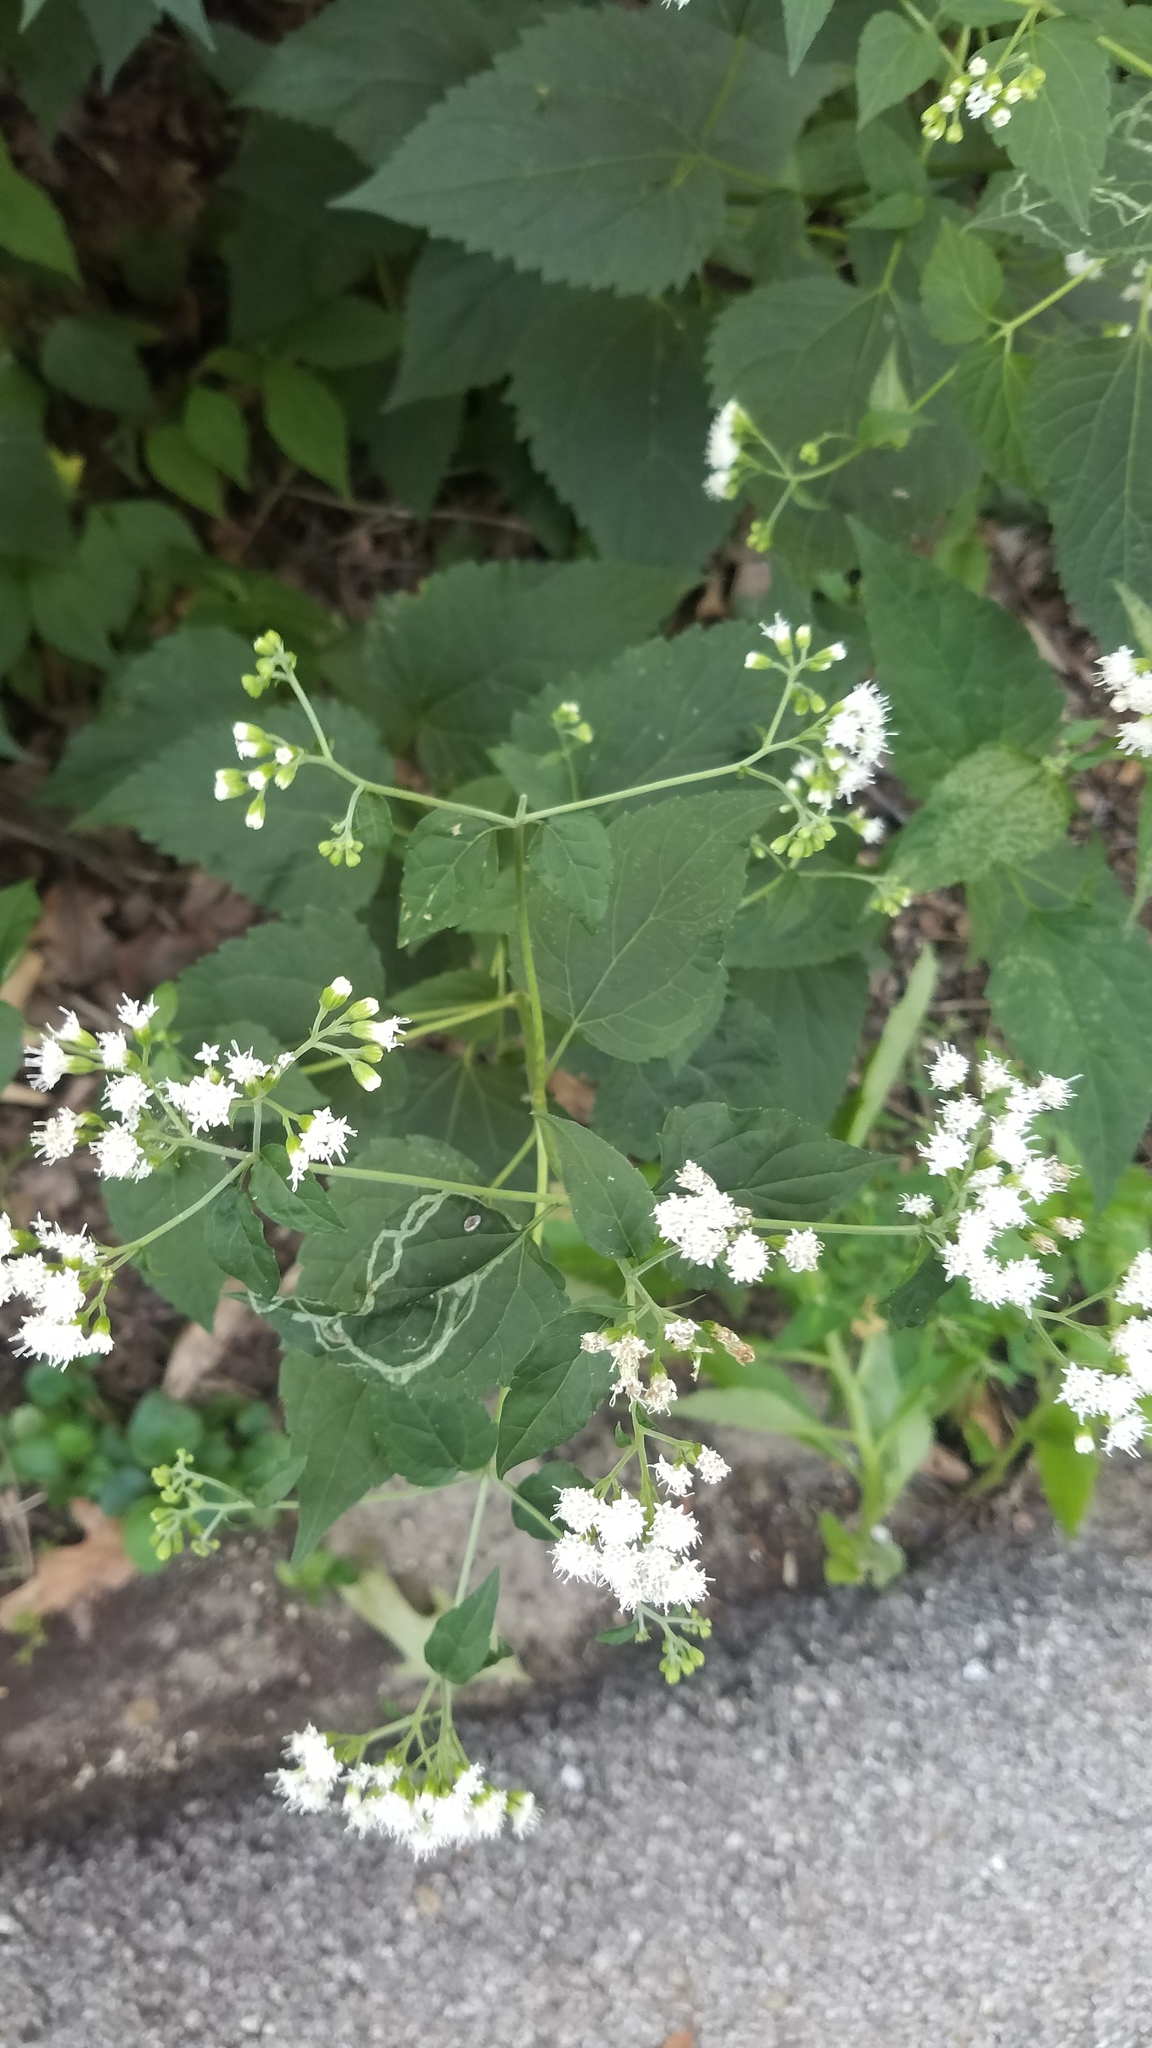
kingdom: Plantae
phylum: Tracheophyta
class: Magnoliopsida
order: Asterales
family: Asteraceae
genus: Ageratina
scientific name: Ageratina altissima
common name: White snakeroot
